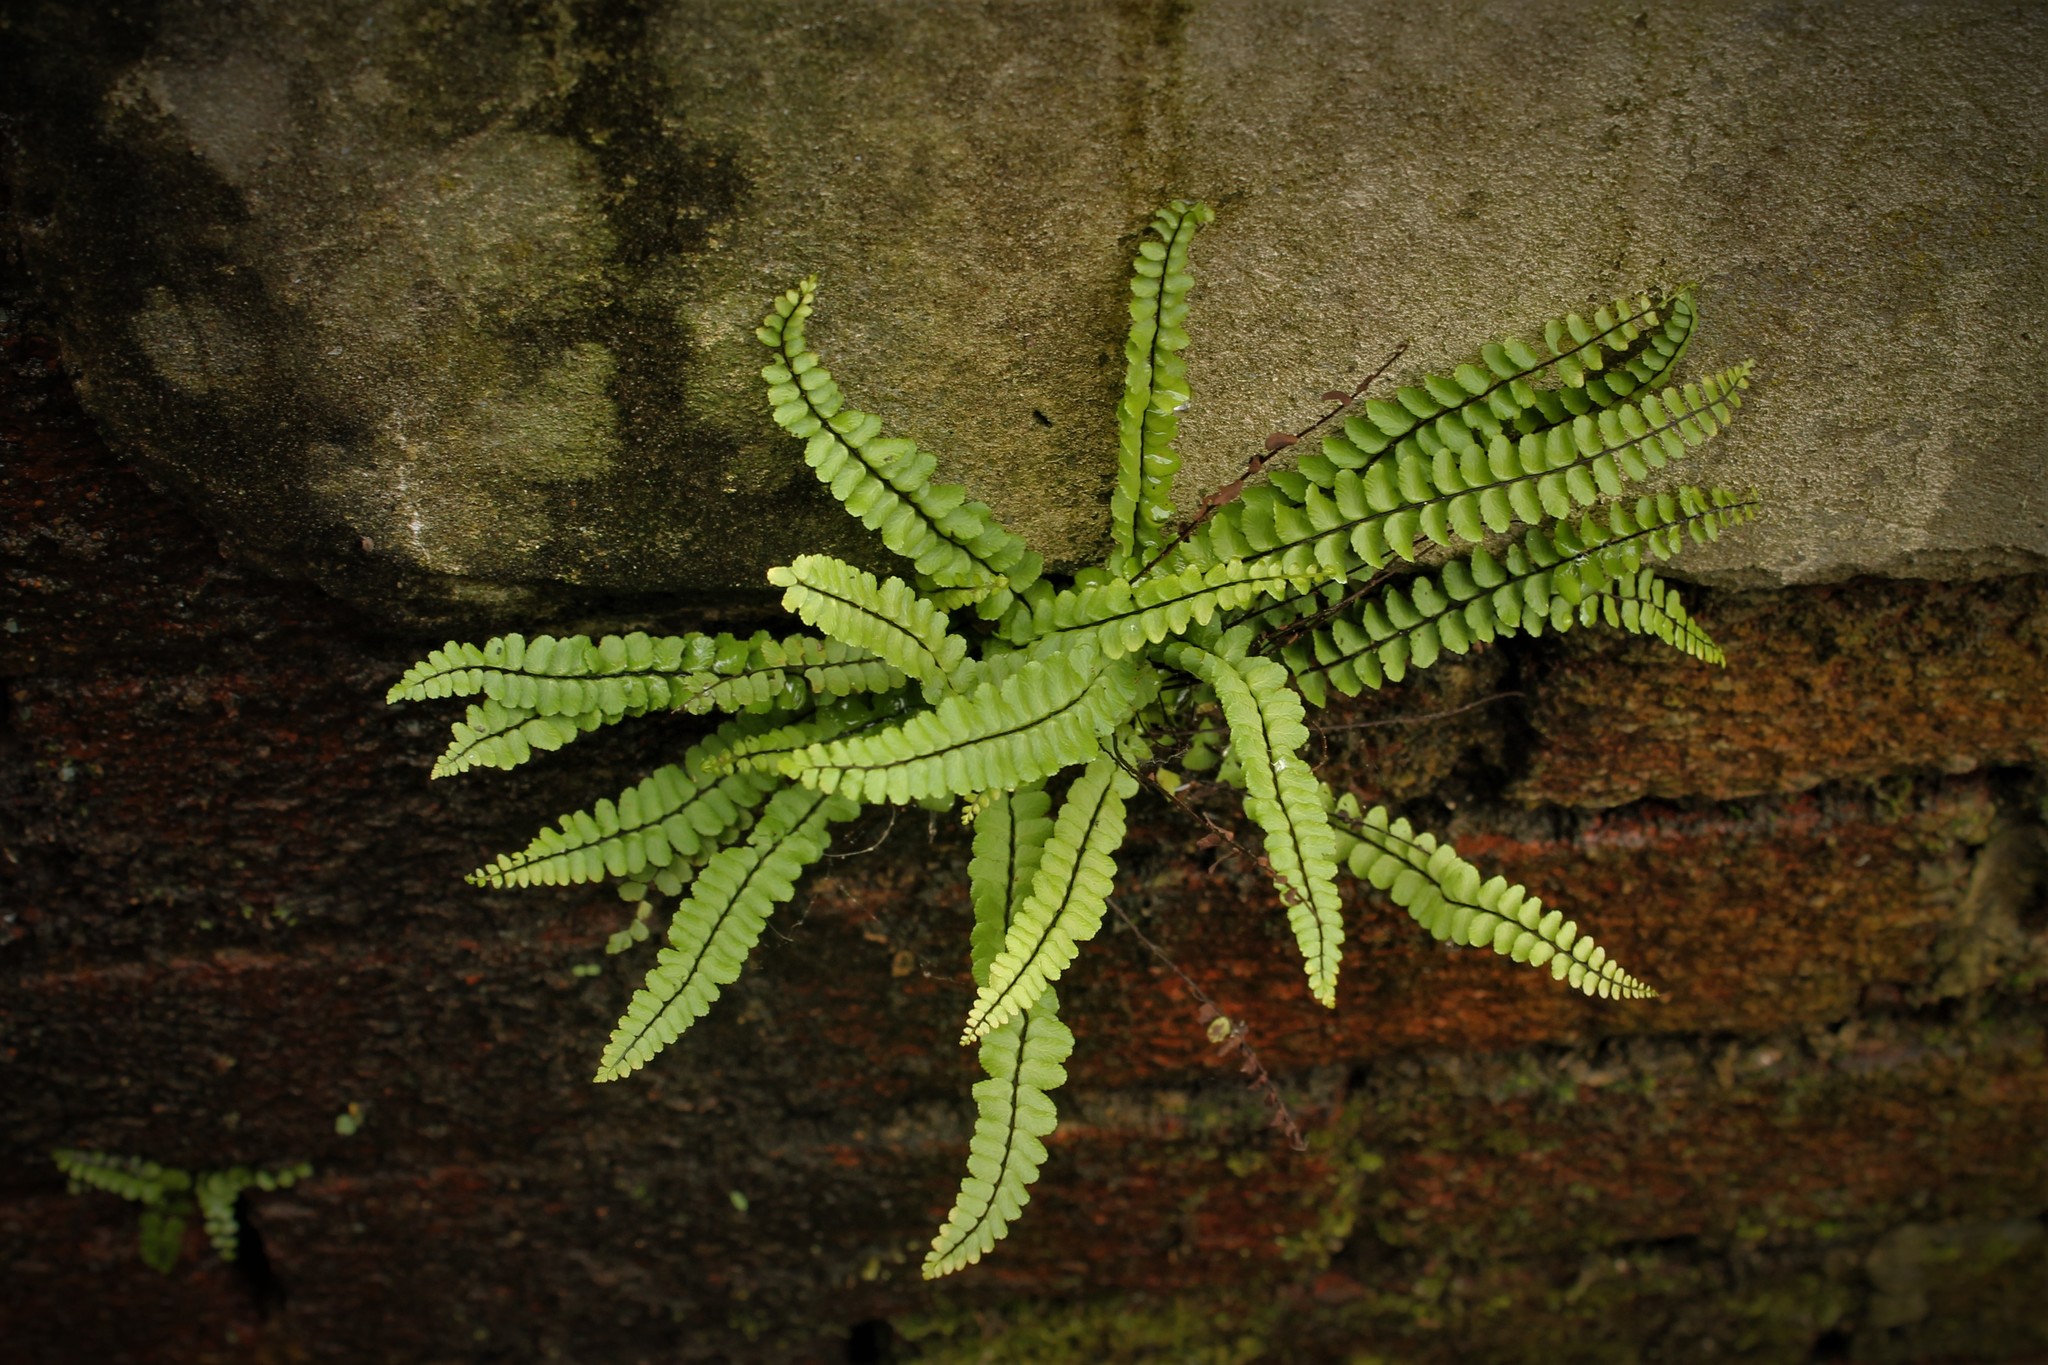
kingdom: Plantae
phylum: Tracheophyta
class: Polypodiopsida
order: Polypodiales
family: Aspleniaceae
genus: Asplenium
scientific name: Asplenium trichomanes
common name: Maidenhair spleenwort
